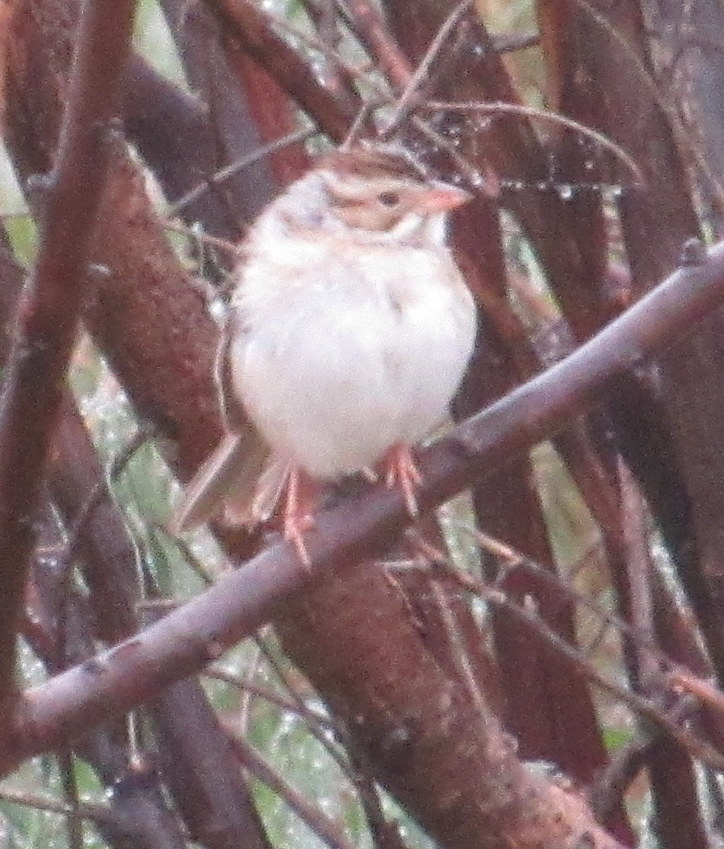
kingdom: Animalia
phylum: Chordata
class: Aves
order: Passeriformes
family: Passerellidae
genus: Spizella
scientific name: Spizella pallida
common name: Clay-colored sparrow
